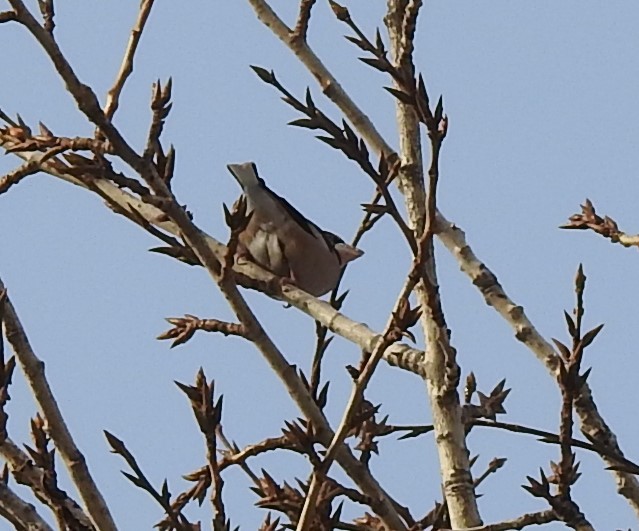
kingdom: Animalia
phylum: Chordata
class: Aves
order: Passeriformes
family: Fringillidae
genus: Coccothraustes
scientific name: Coccothraustes coccothraustes
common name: Hawfinch
